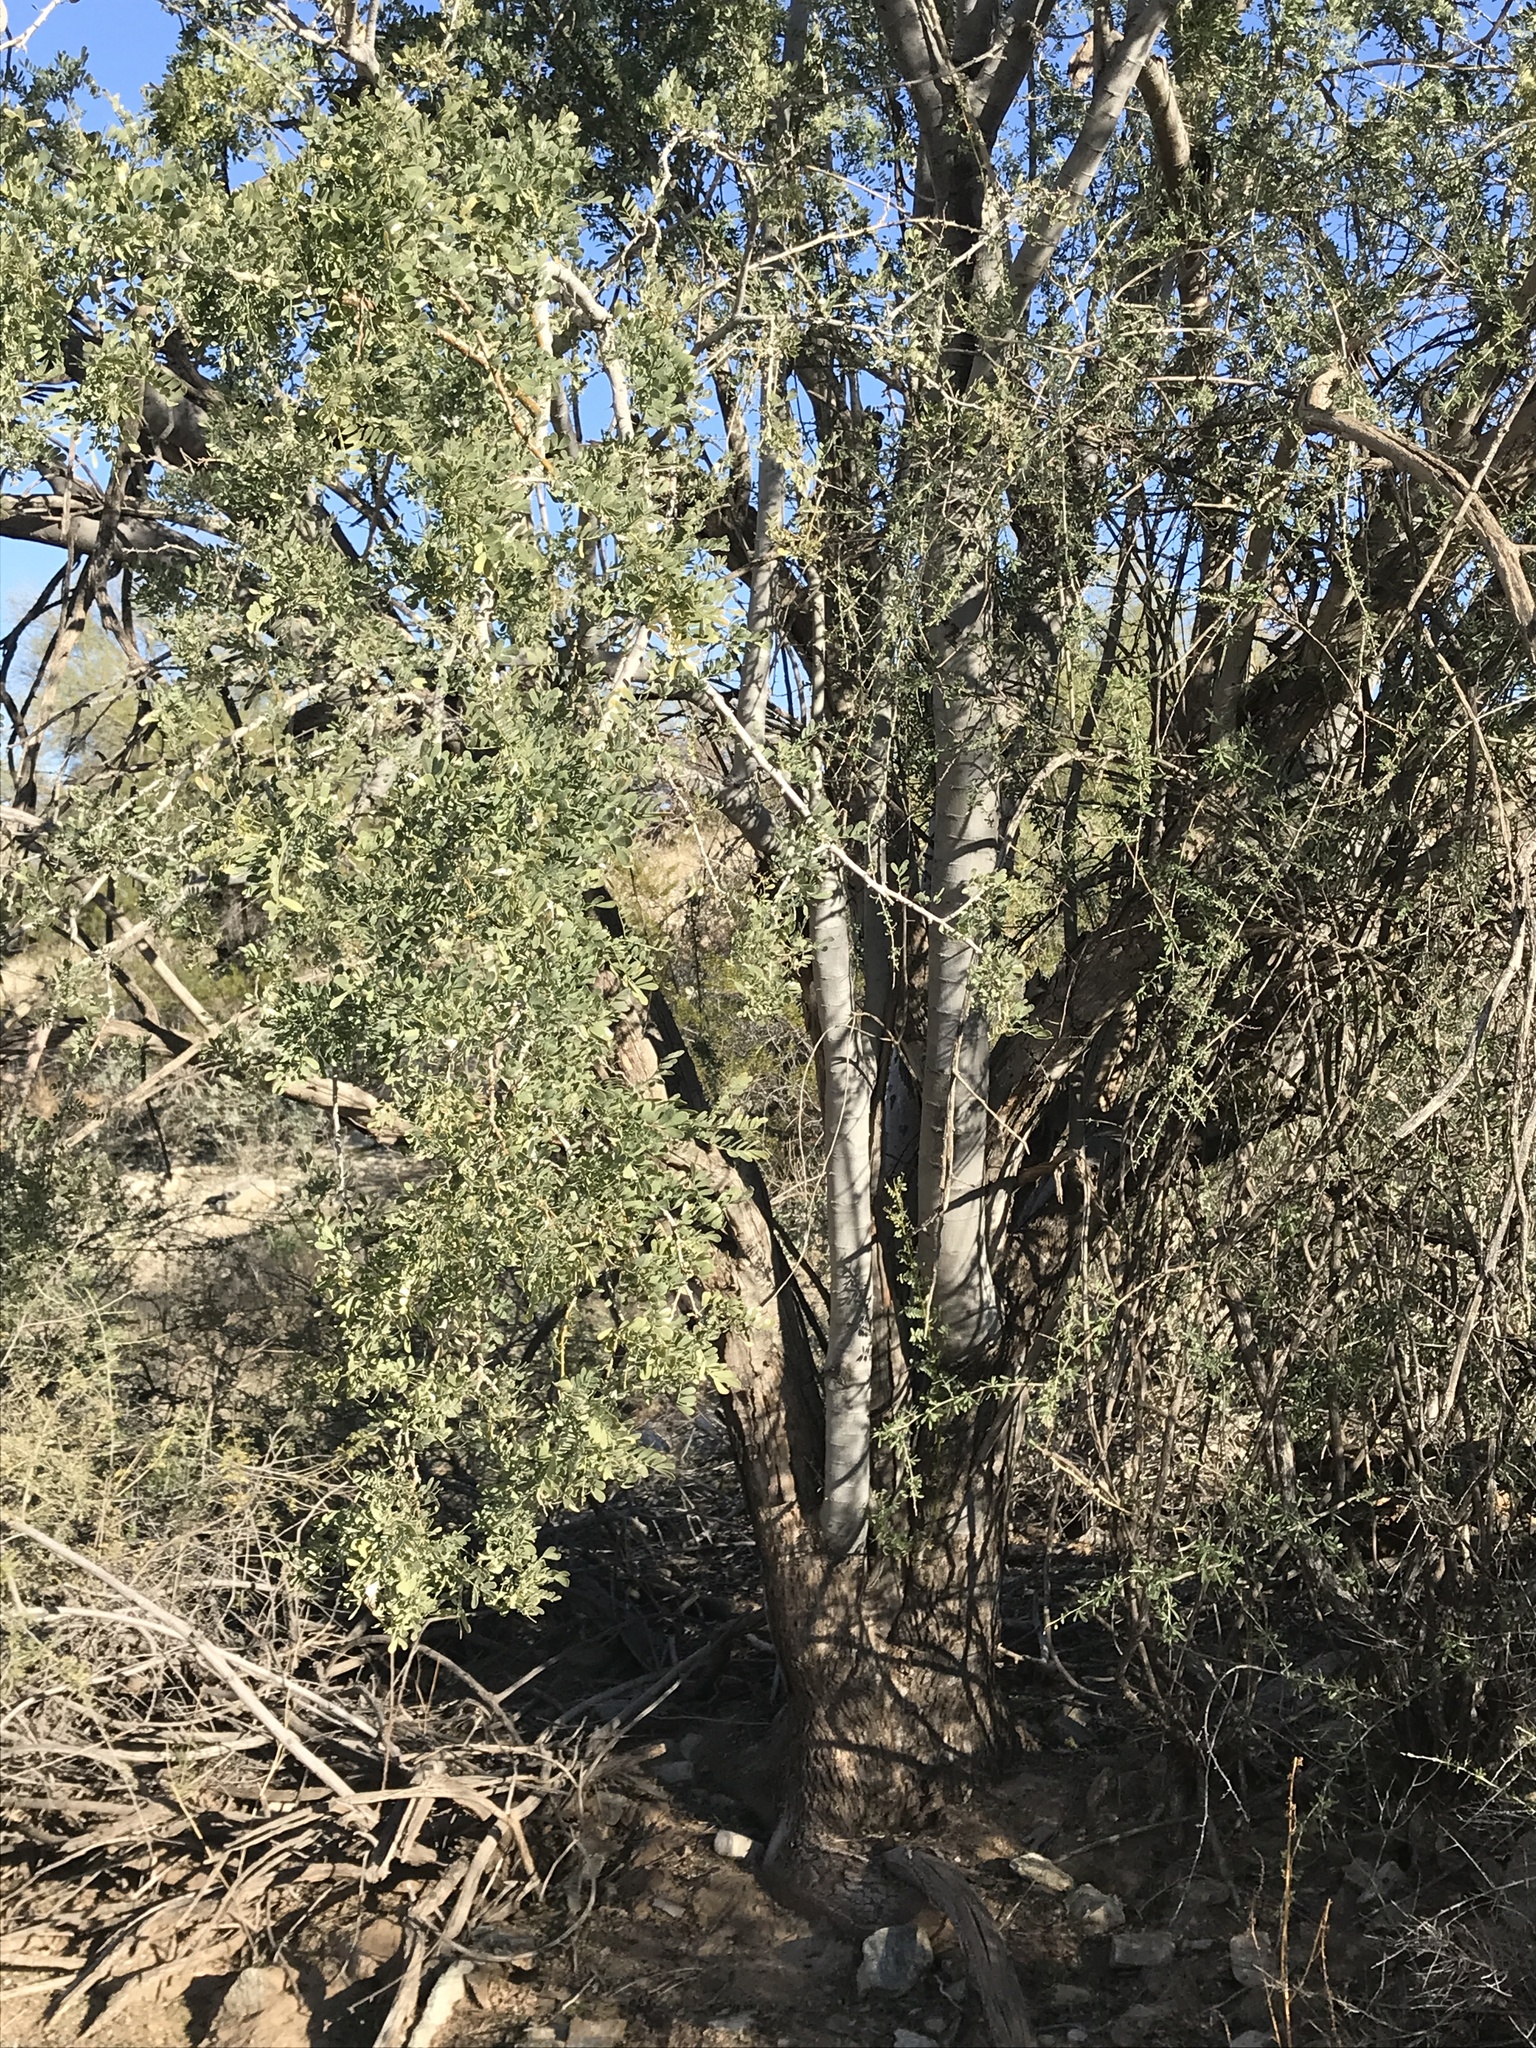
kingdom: Plantae
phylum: Tracheophyta
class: Magnoliopsida
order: Fabales
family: Fabaceae
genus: Olneya
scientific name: Olneya tesota
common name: Desert ironwood
